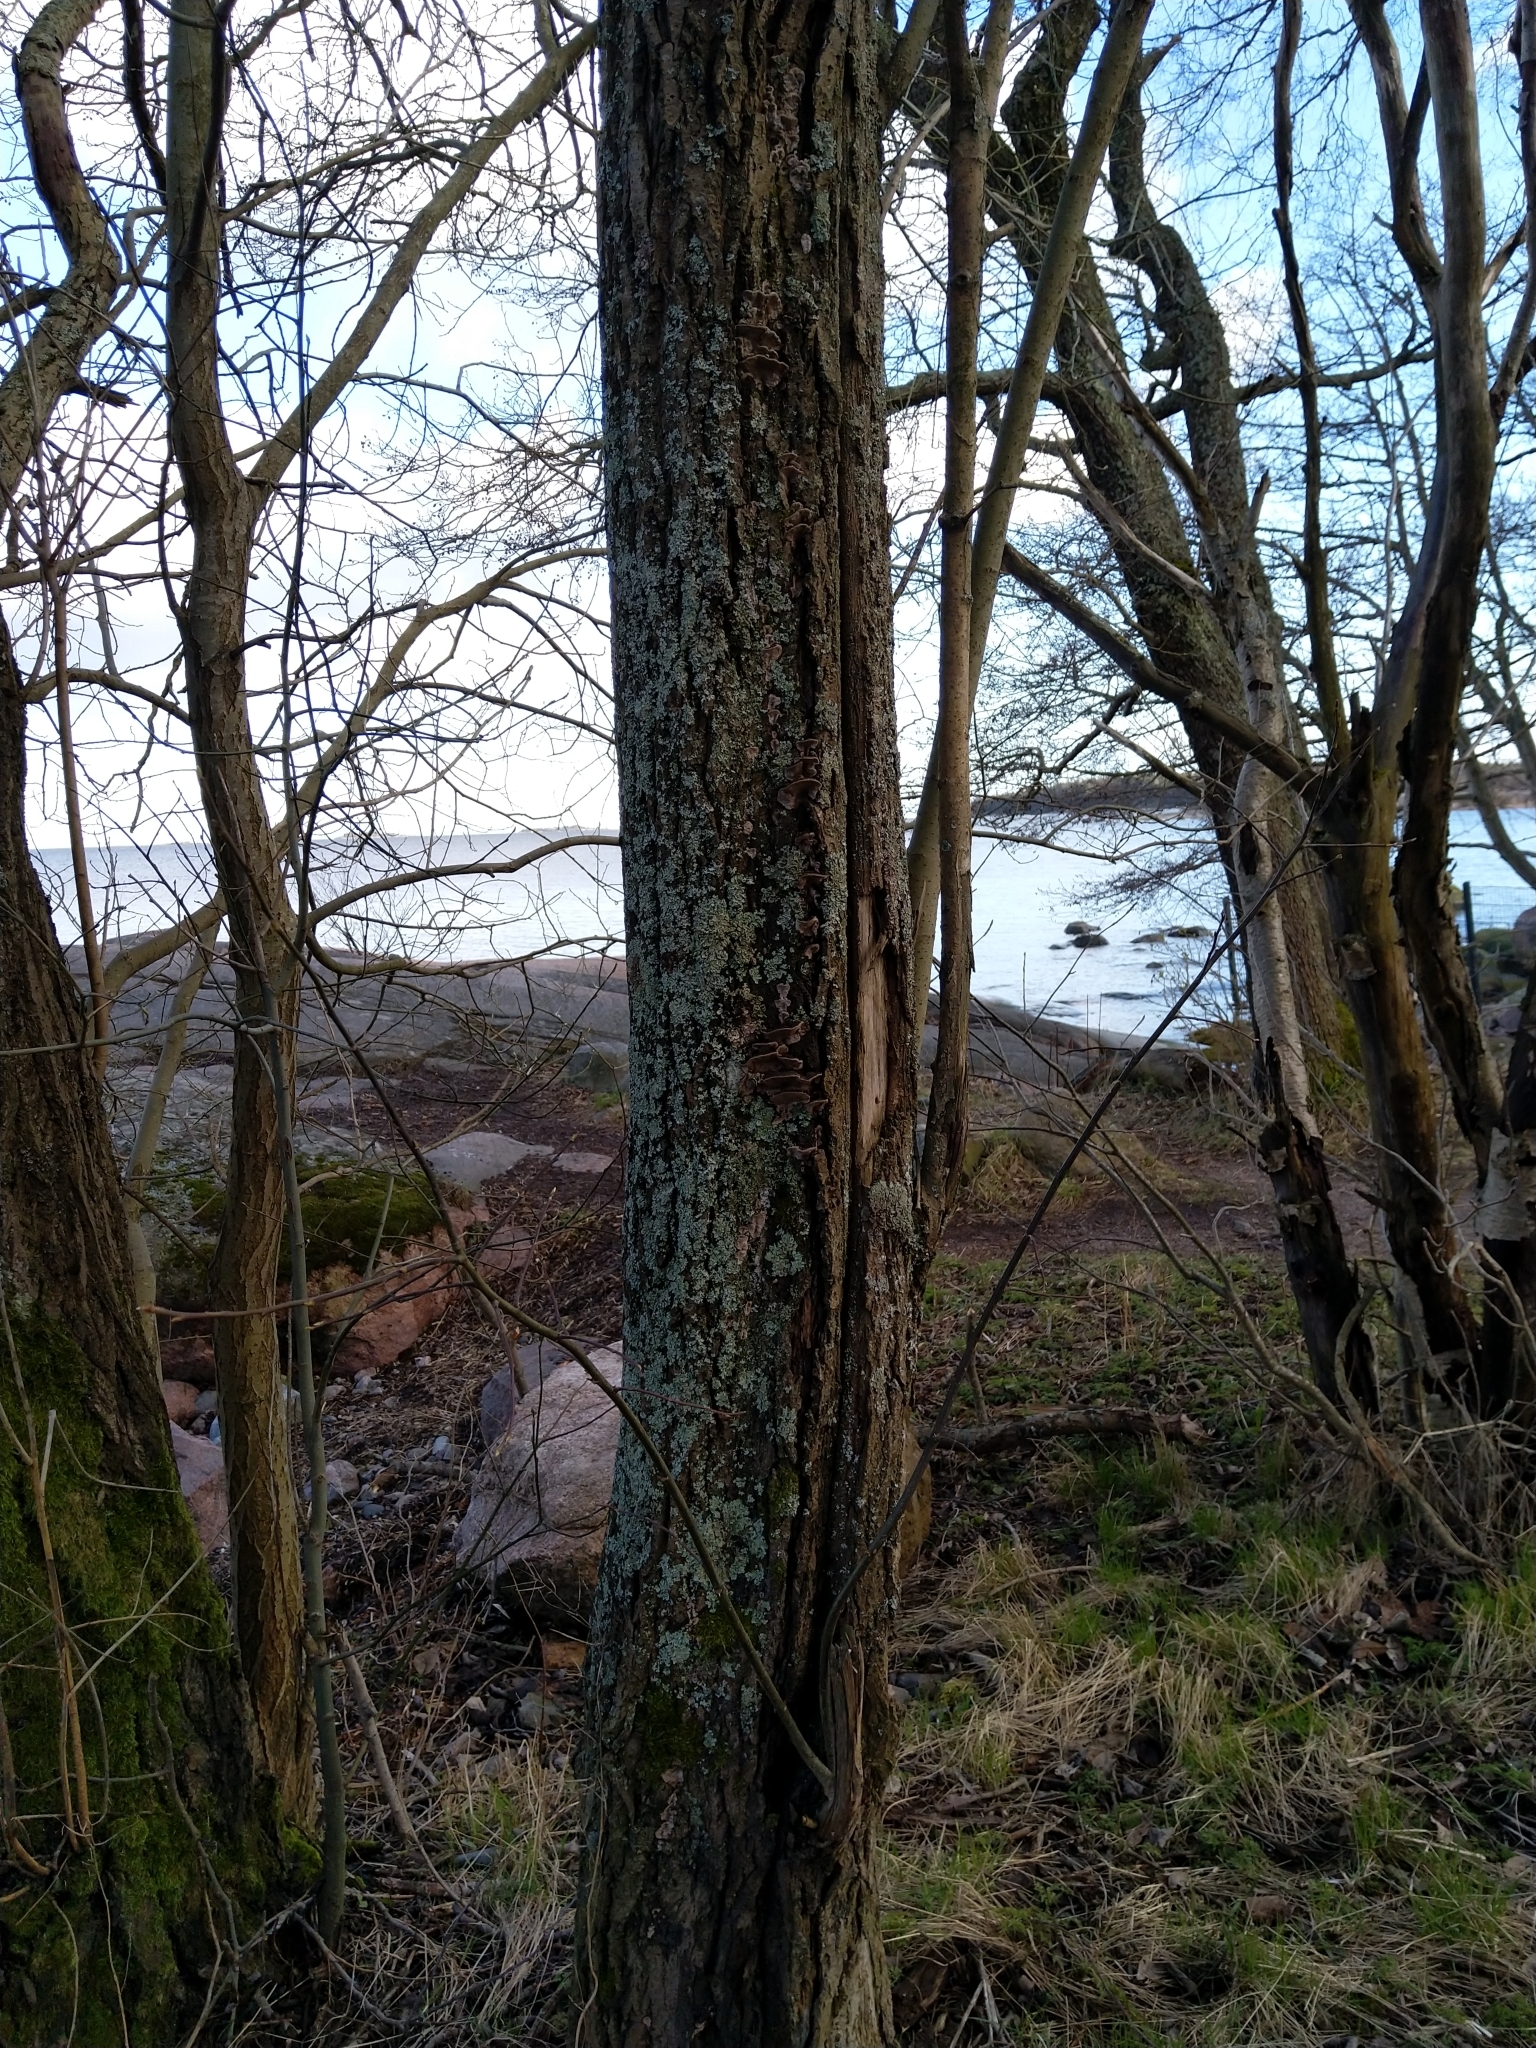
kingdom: Fungi
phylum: Basidiomycota
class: Agaricomycetes
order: Hymenochaetales
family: Hymenochaetaceae
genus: Phellinopsis
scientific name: Phellinopsis conchata
